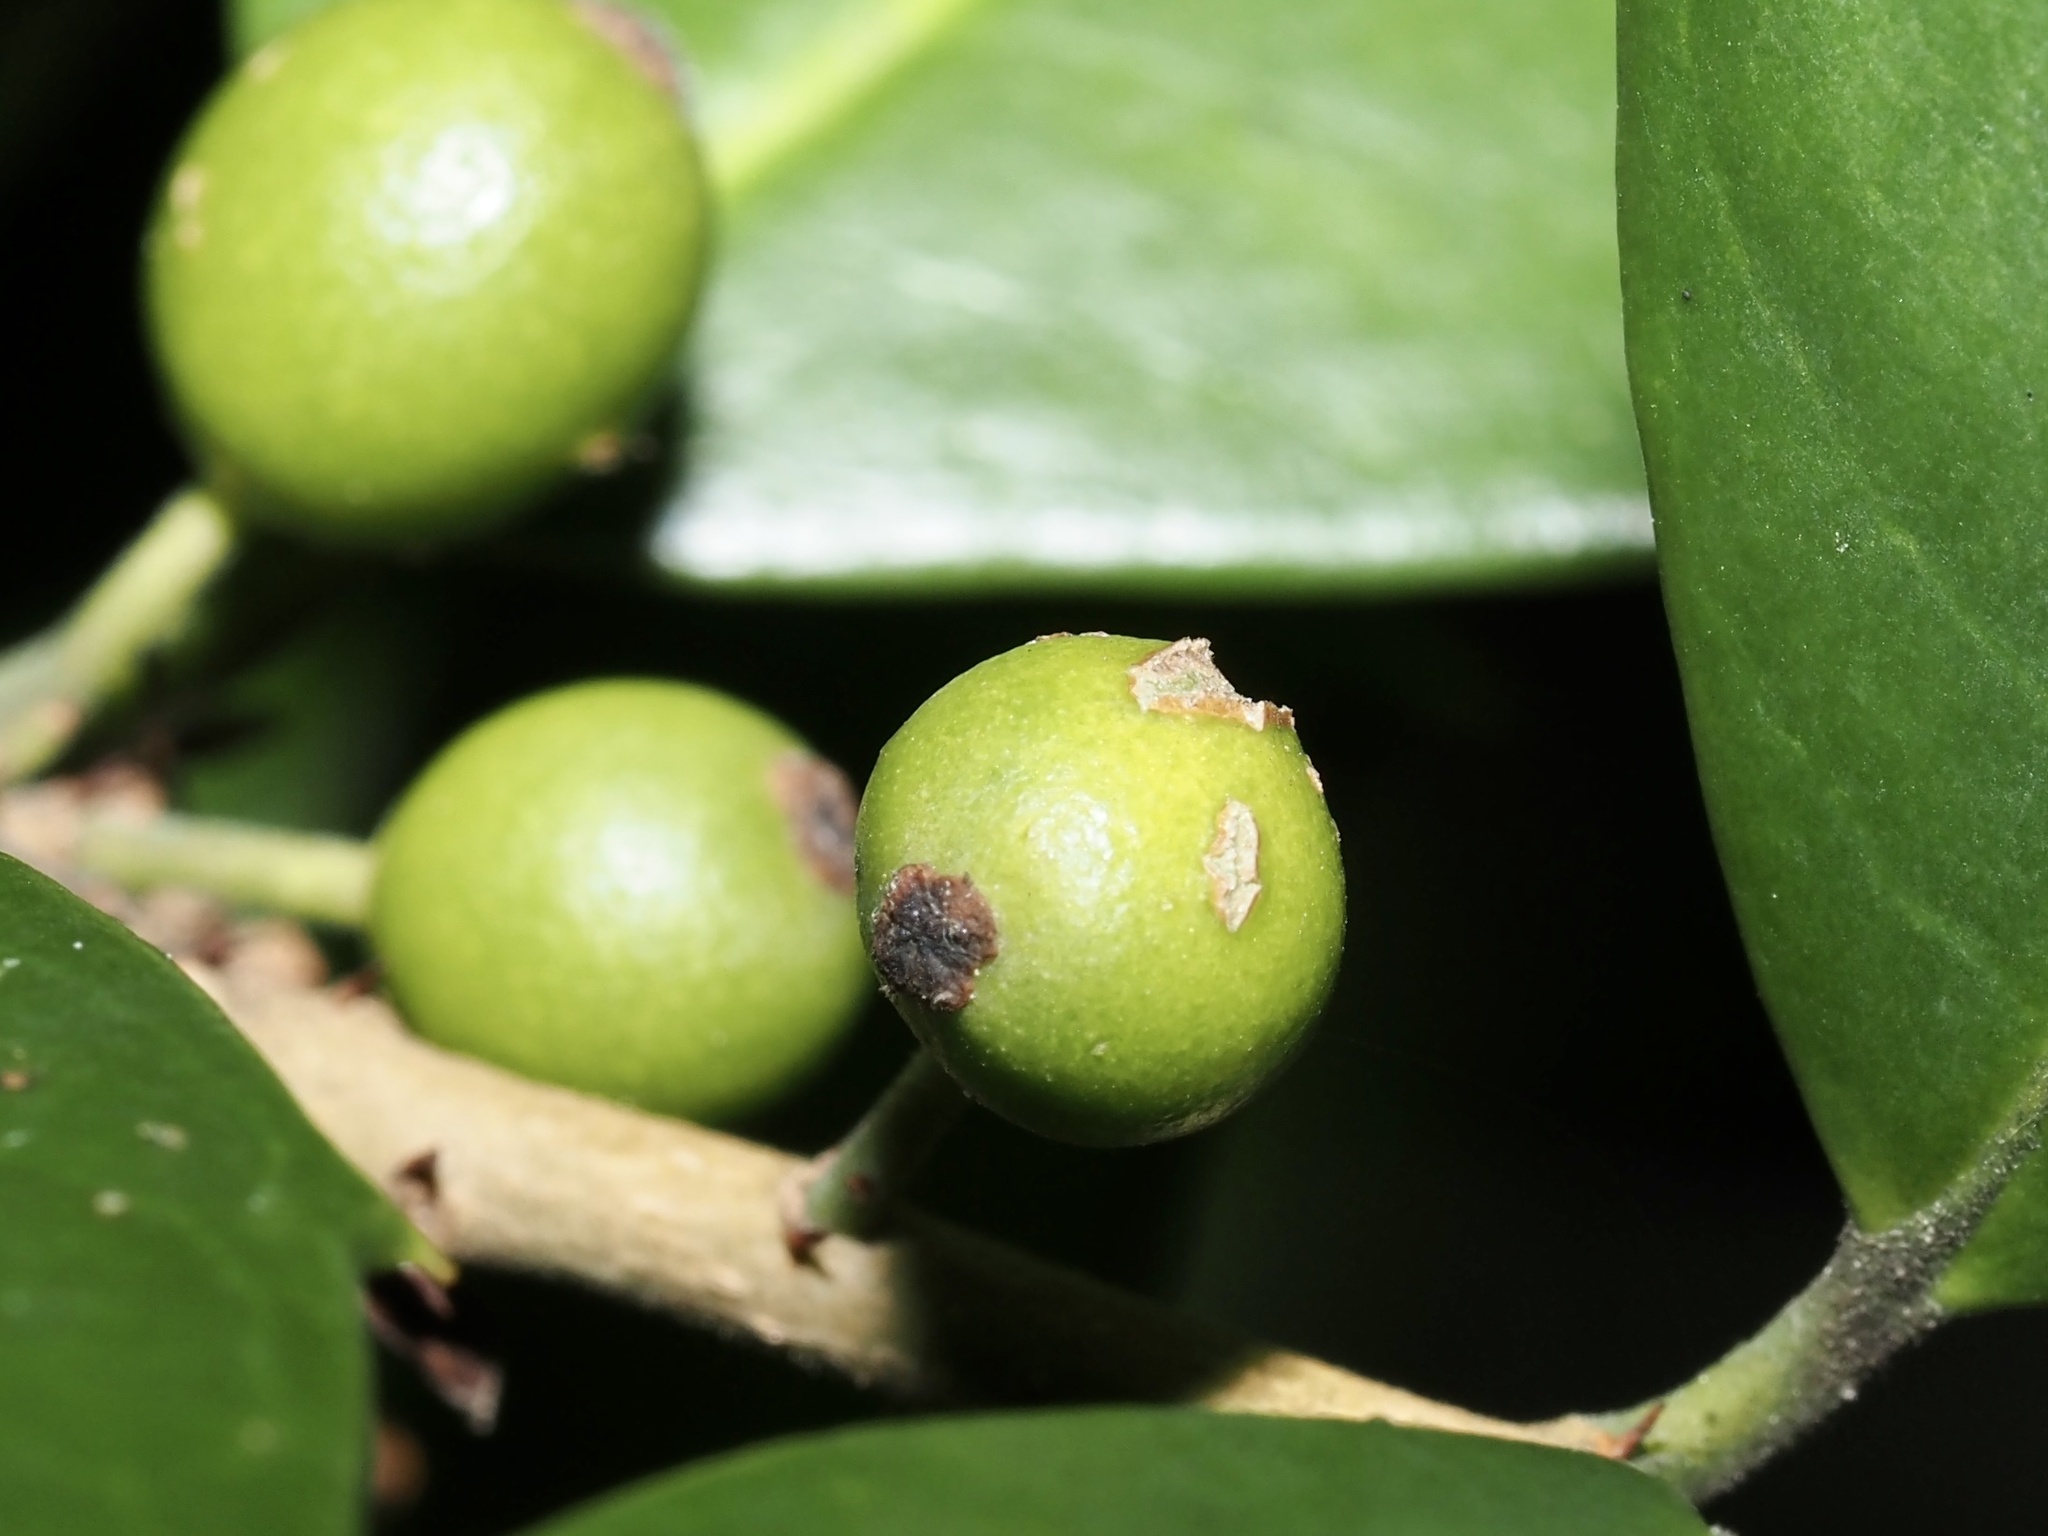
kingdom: Animalia
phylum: Arthropoda
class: Insecta
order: Diptera
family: Cecidomyiidae
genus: Asphondylia
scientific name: Asphondylia ilicicola
